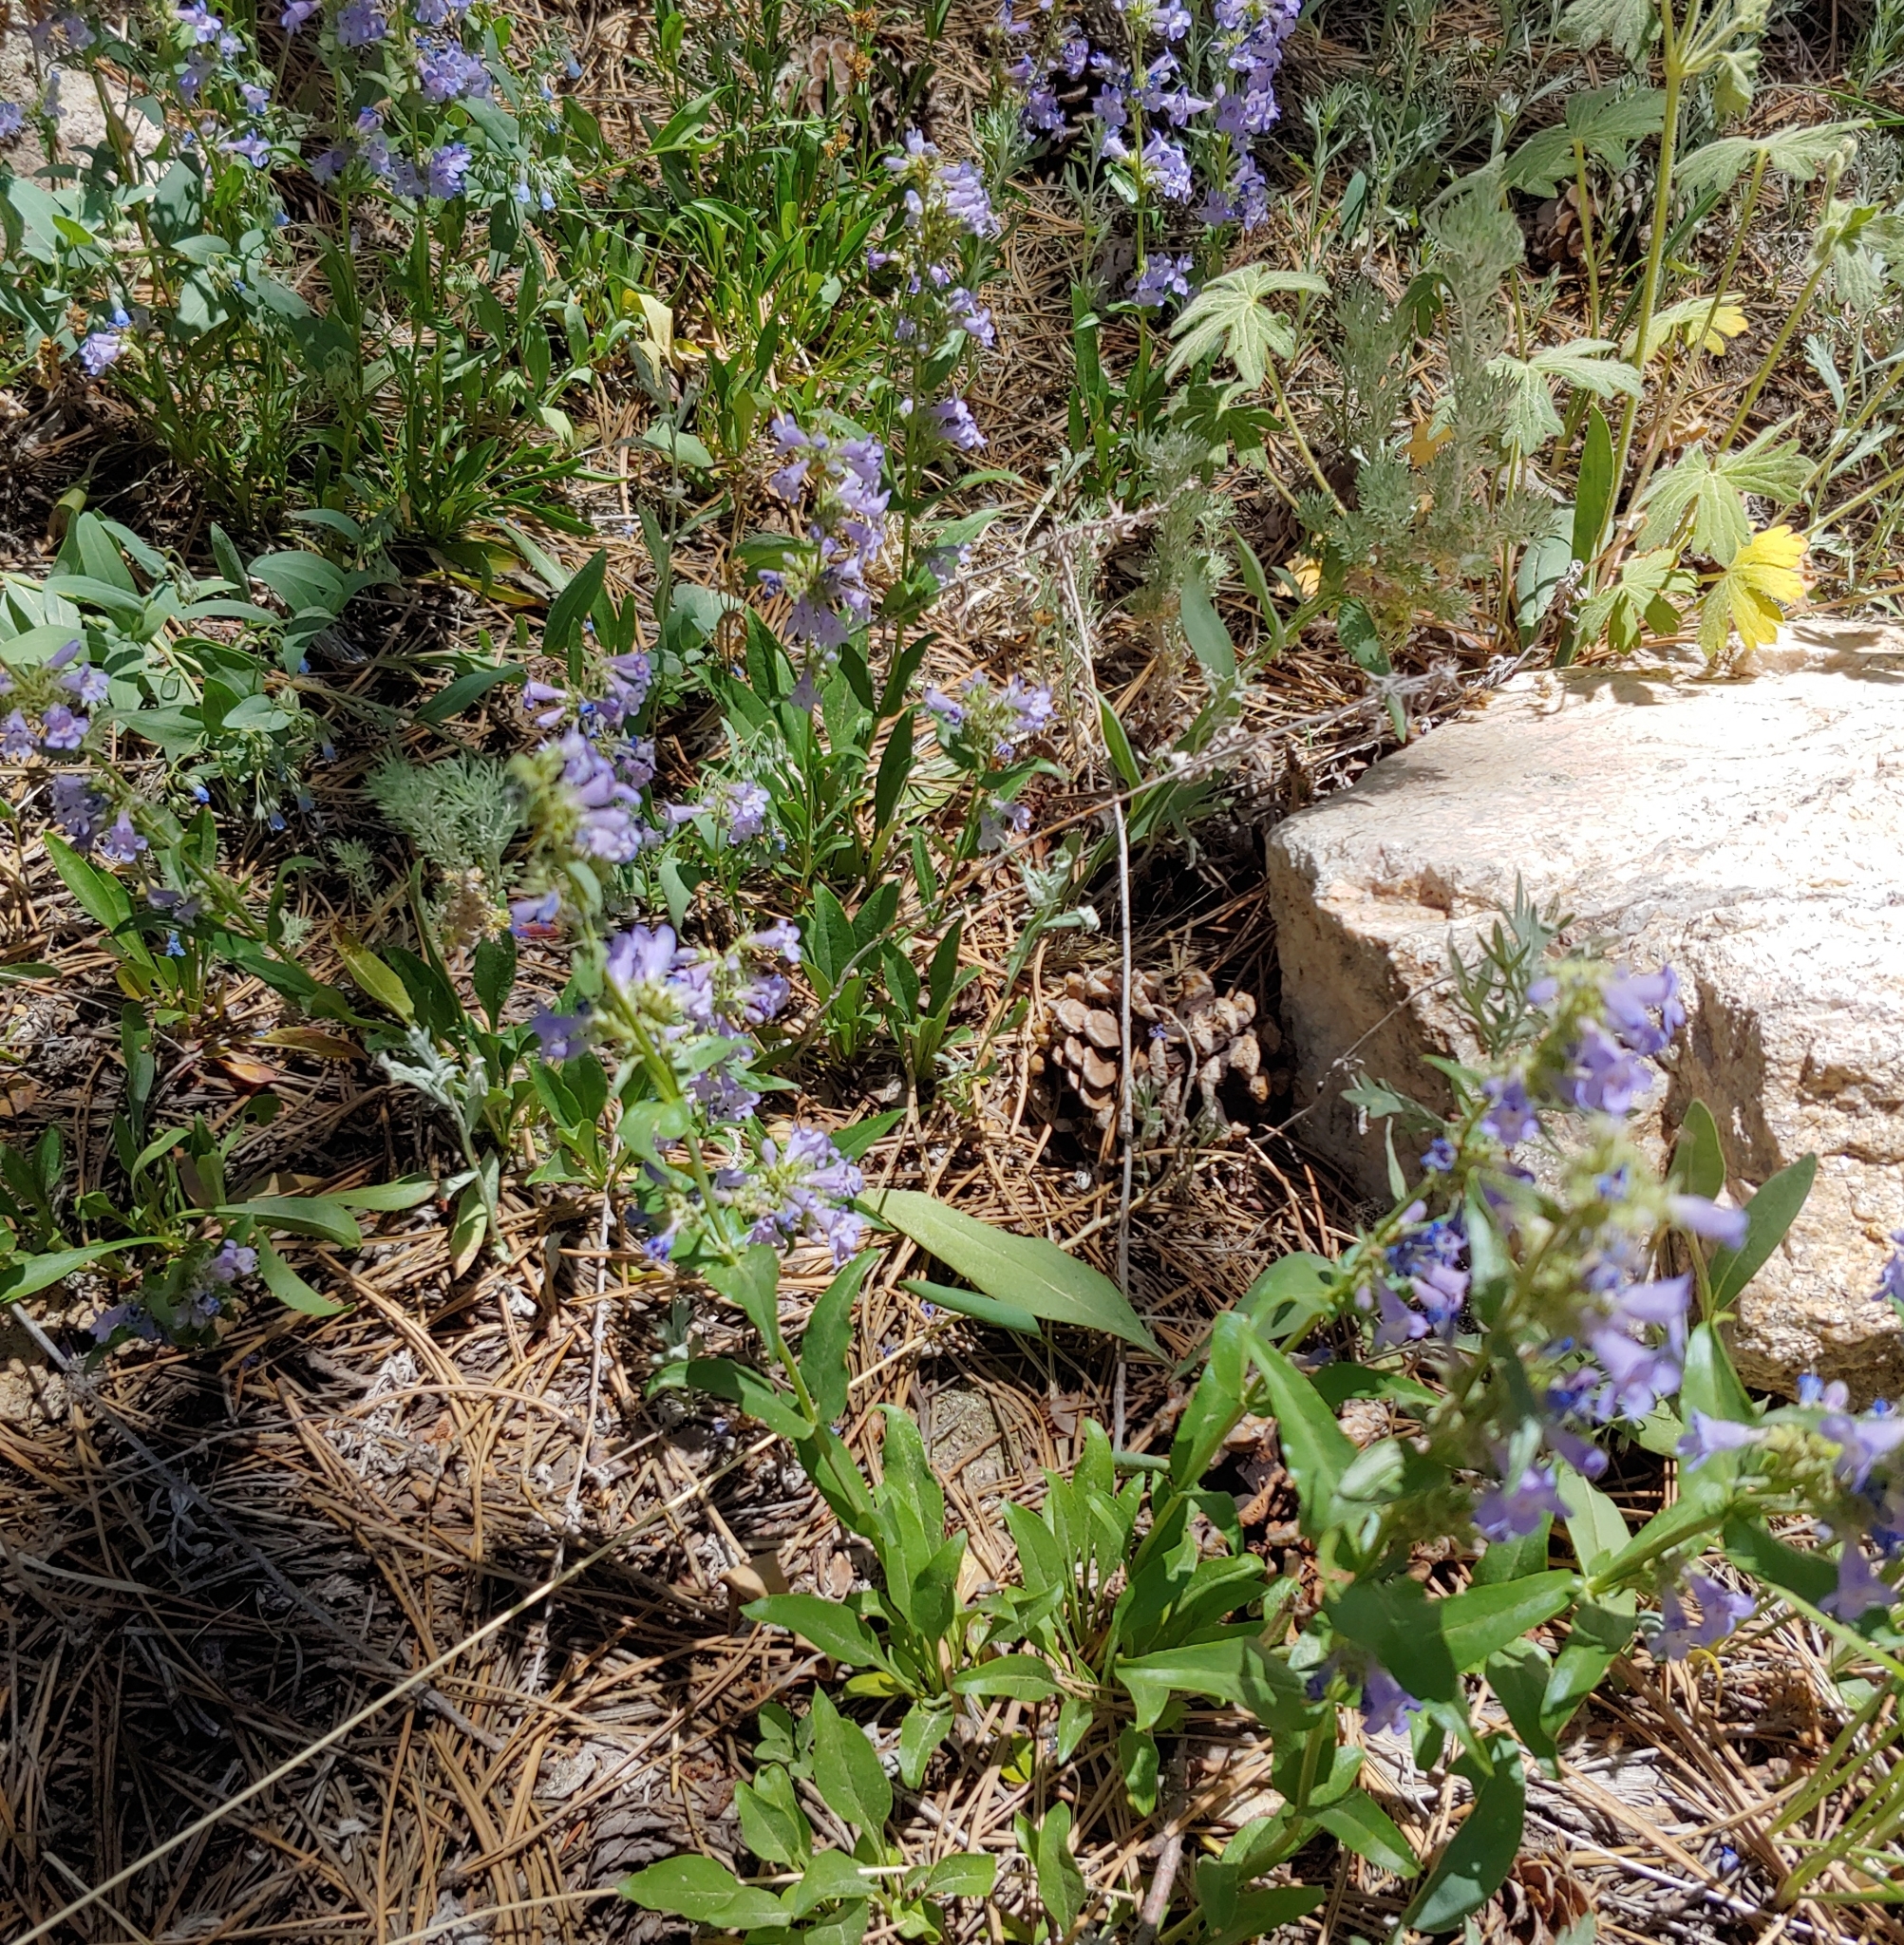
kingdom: Plantae
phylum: Tracheophyta
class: Magnoliopsida
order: Lamiales
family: Plantaginaceae
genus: Penstemon
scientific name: Penstemon virens
